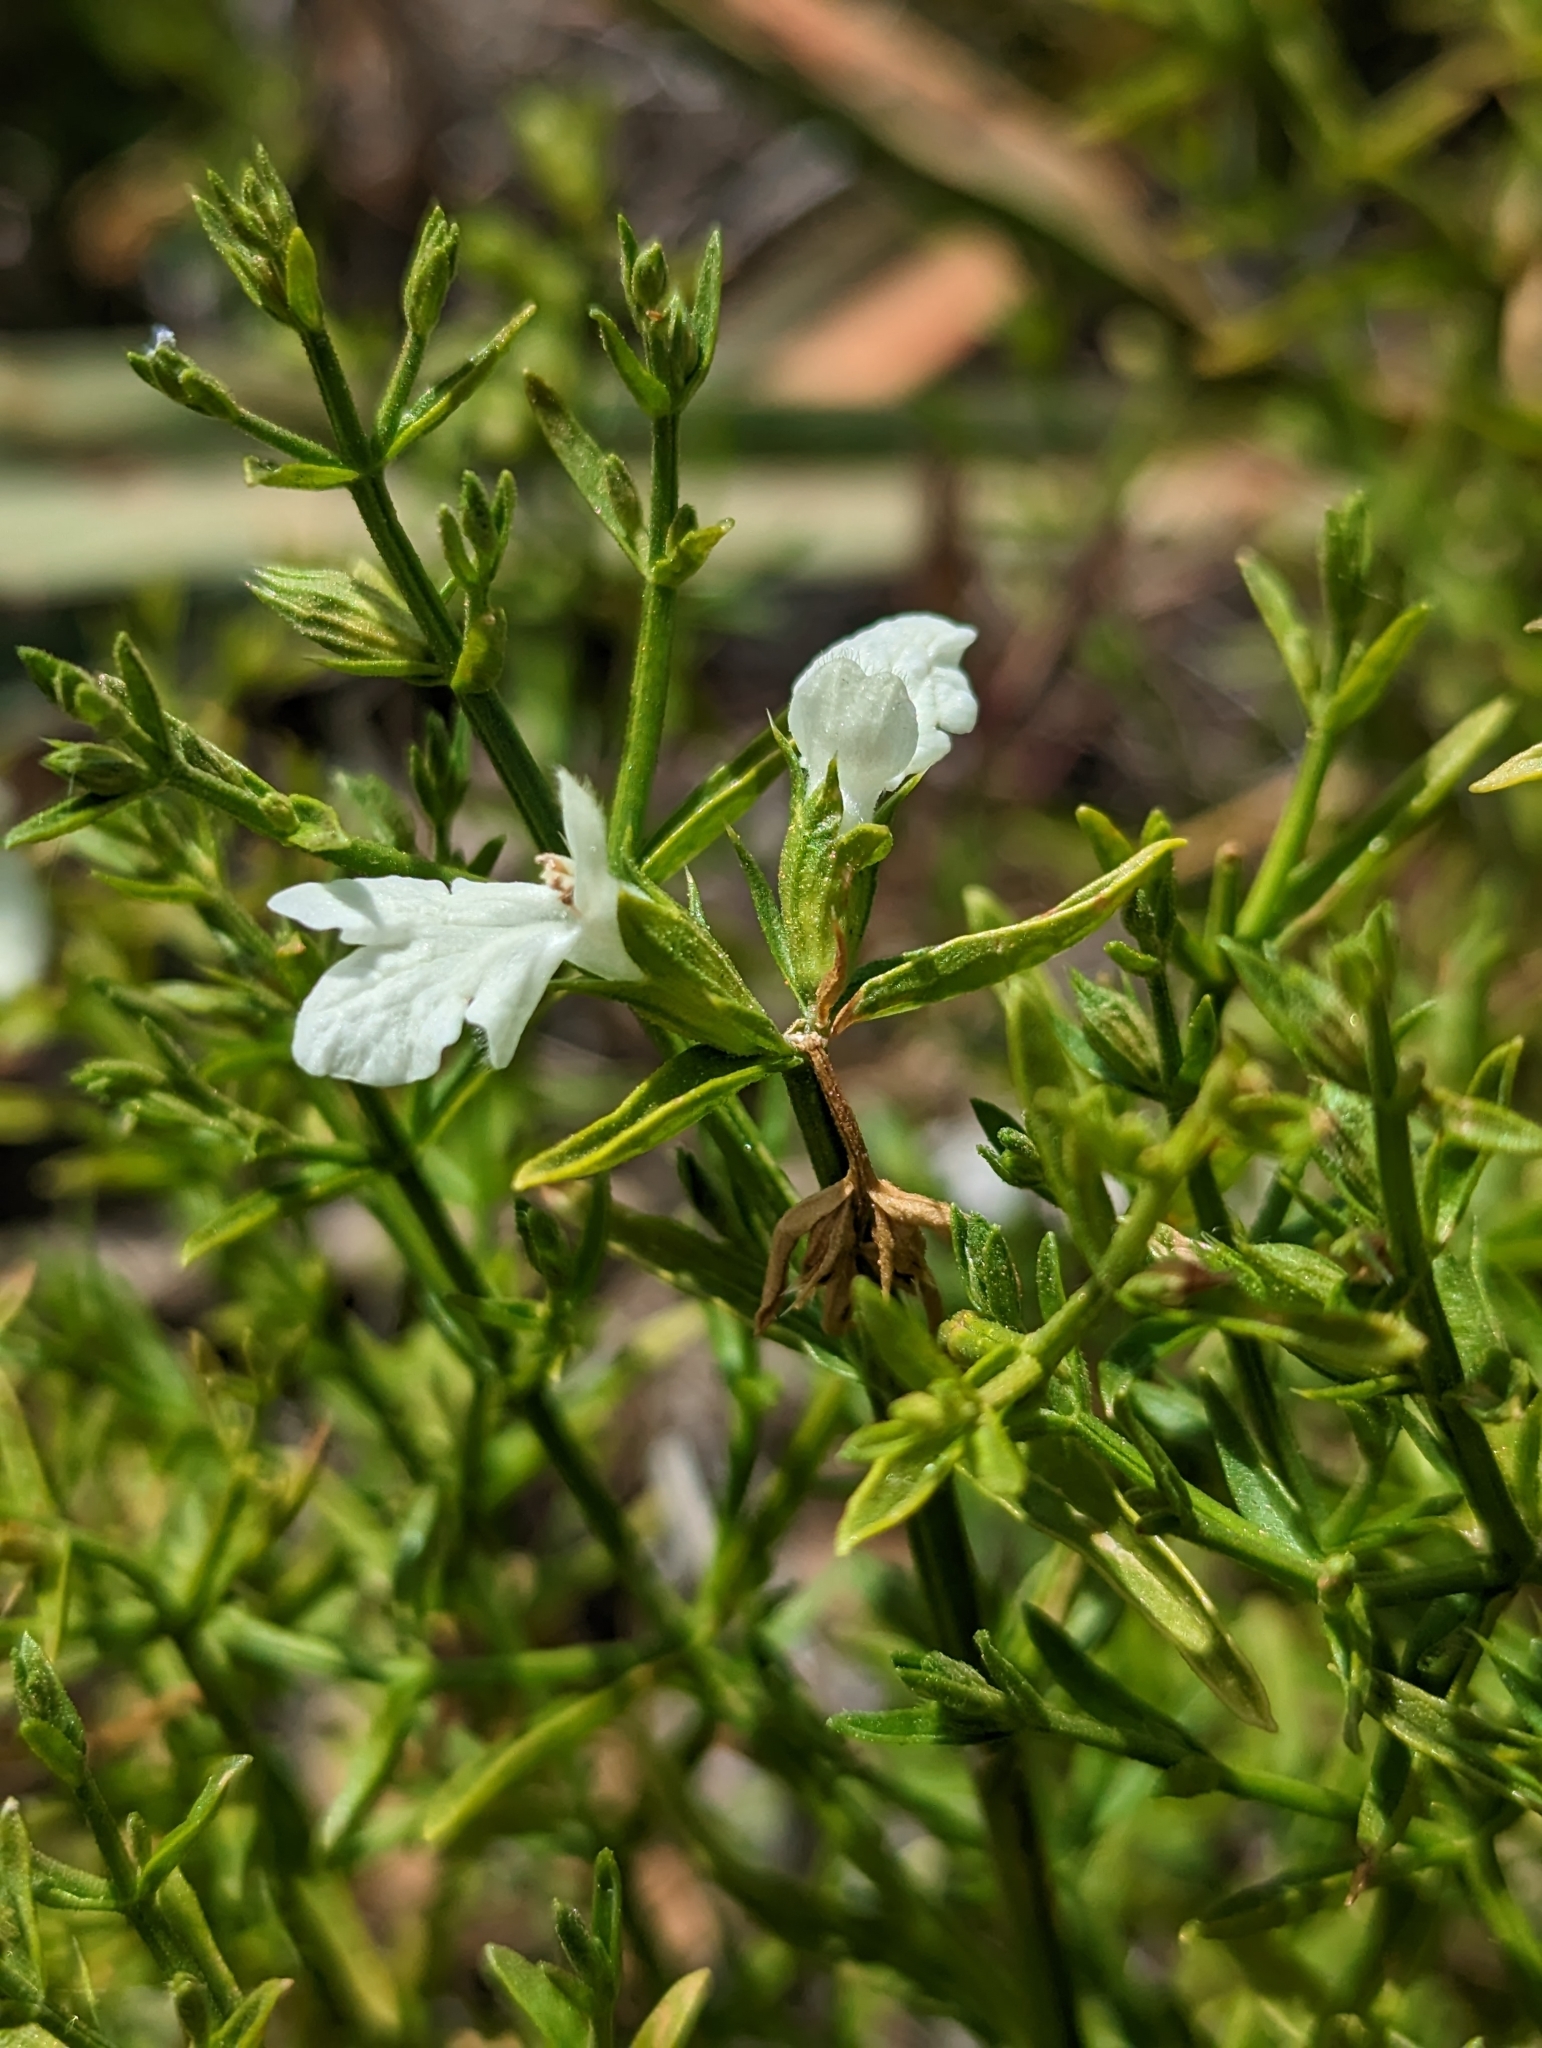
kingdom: Plantae
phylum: Tracheophyta
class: Magnoliopsida
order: Lamiales
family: Lamiaceae
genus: Stachys
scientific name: Stachys glutinosa
